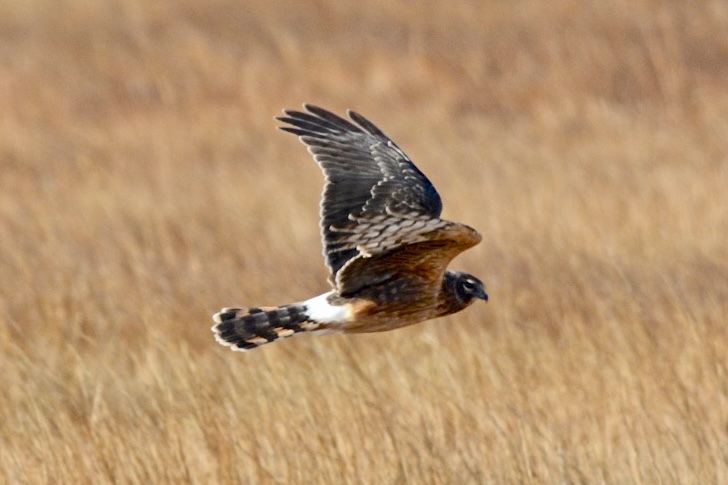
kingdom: Animalia
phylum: Chordata
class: Aves
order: Accipitriformes
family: Accipitridae
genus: Circus
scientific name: Circus cyaneus
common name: Hen harrier
